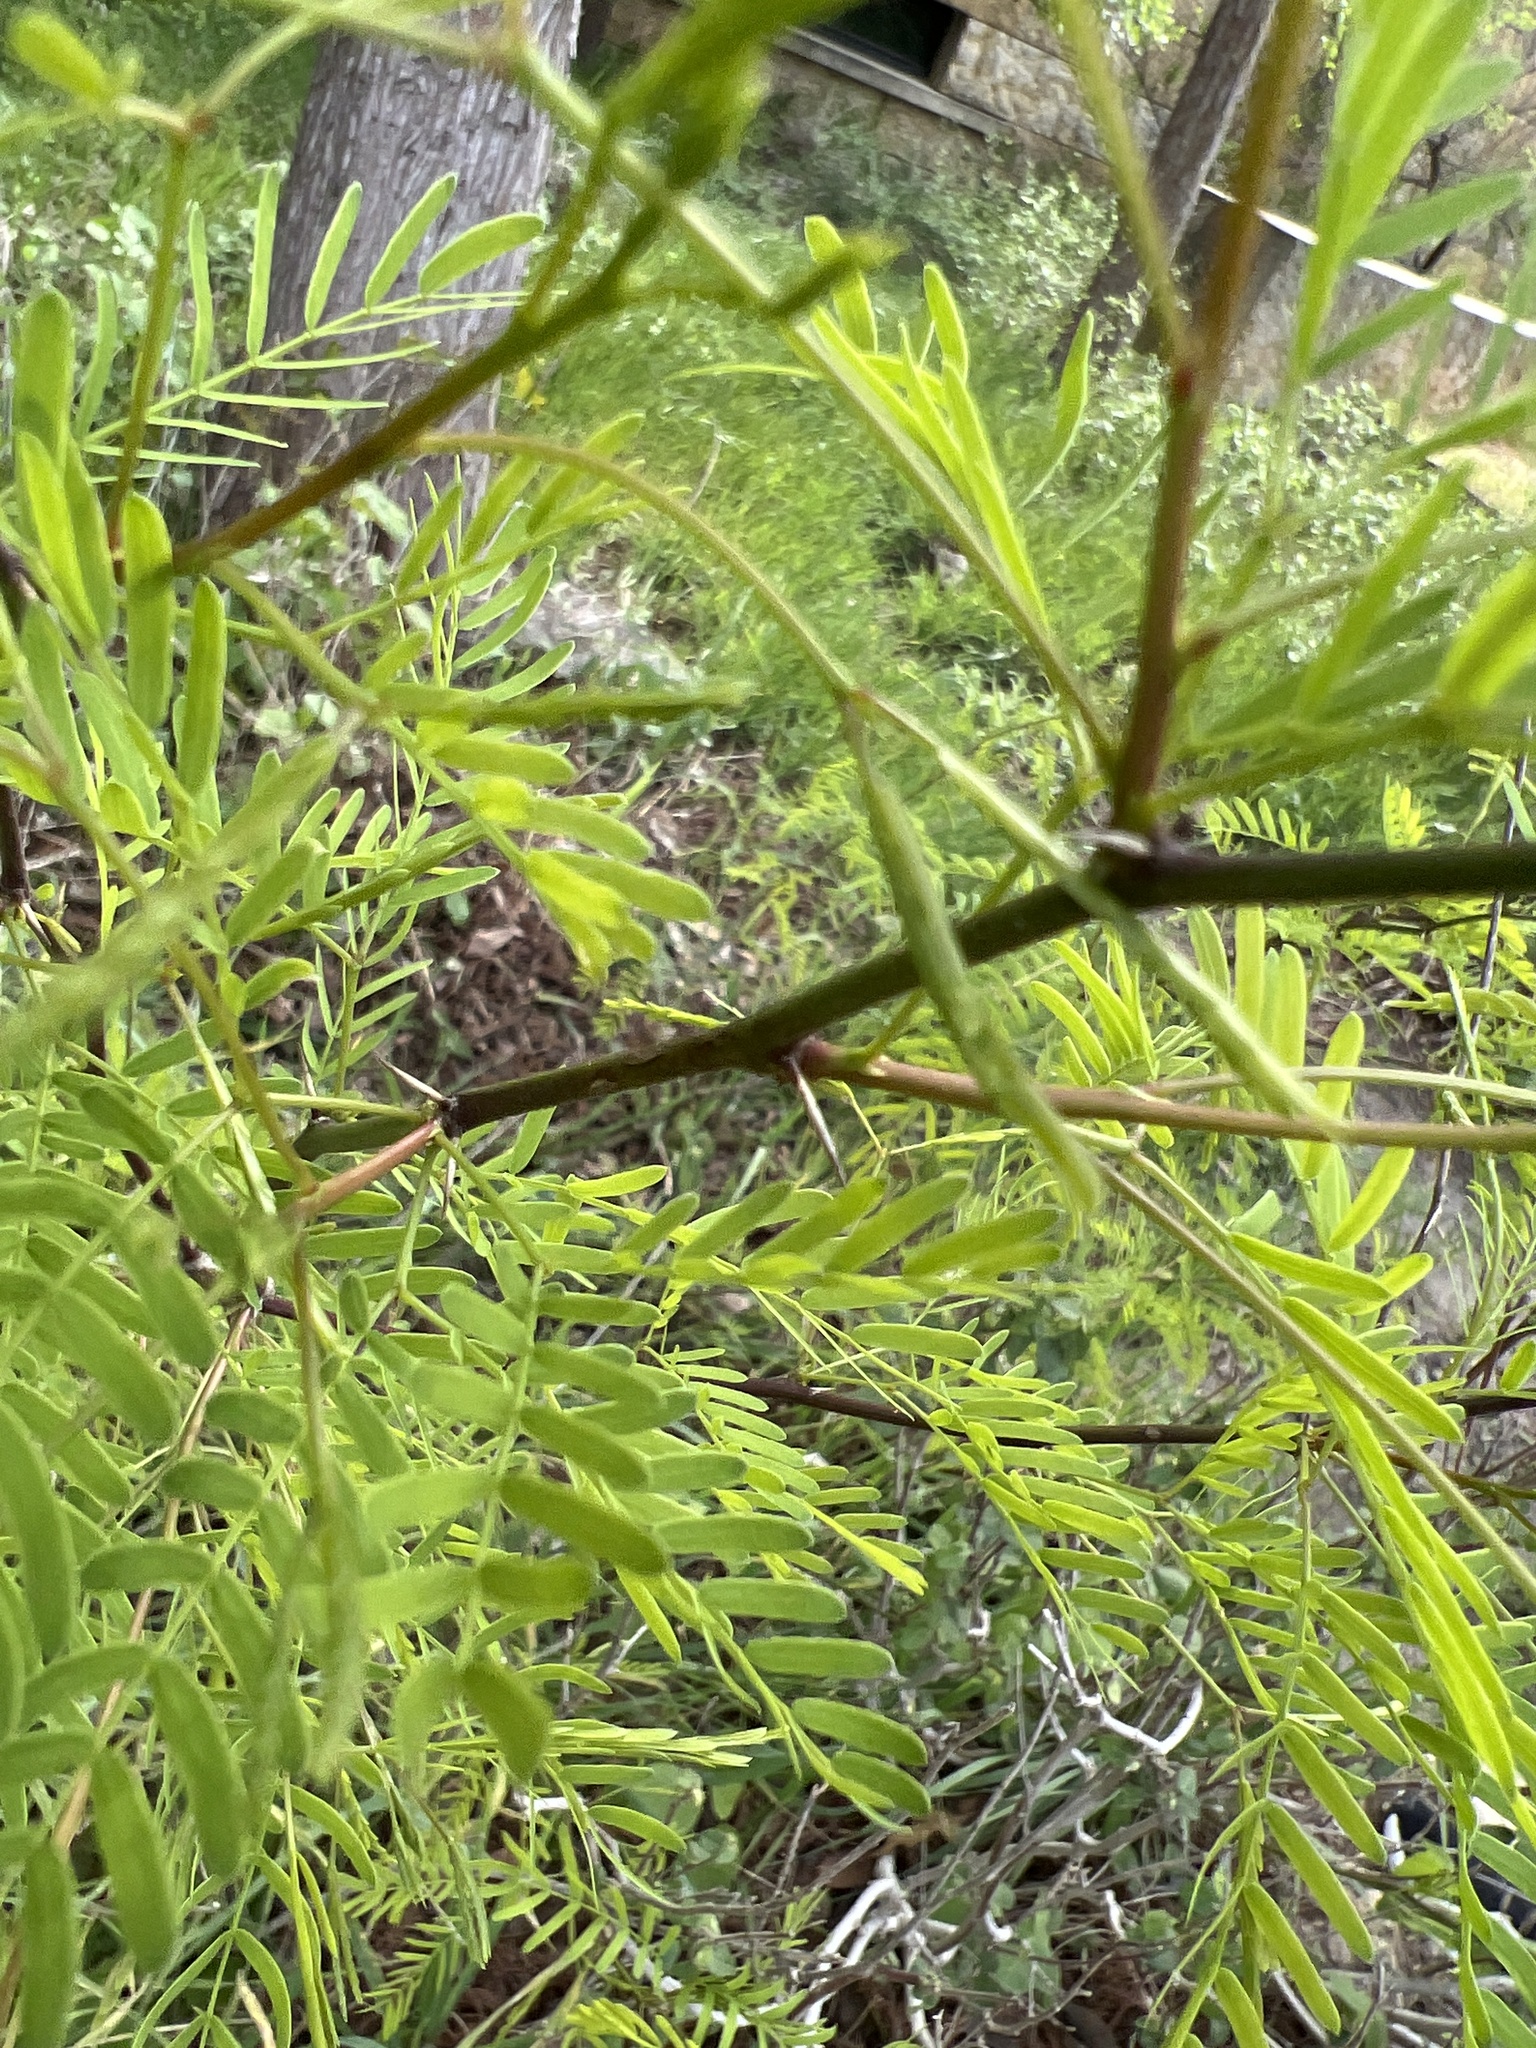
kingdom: Plantae
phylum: Tracheophyta
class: Magnoliopsida
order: Fabales
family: Fabaceae
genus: Vachellia
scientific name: Vachellia farnesiana
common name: Sweet acacia
